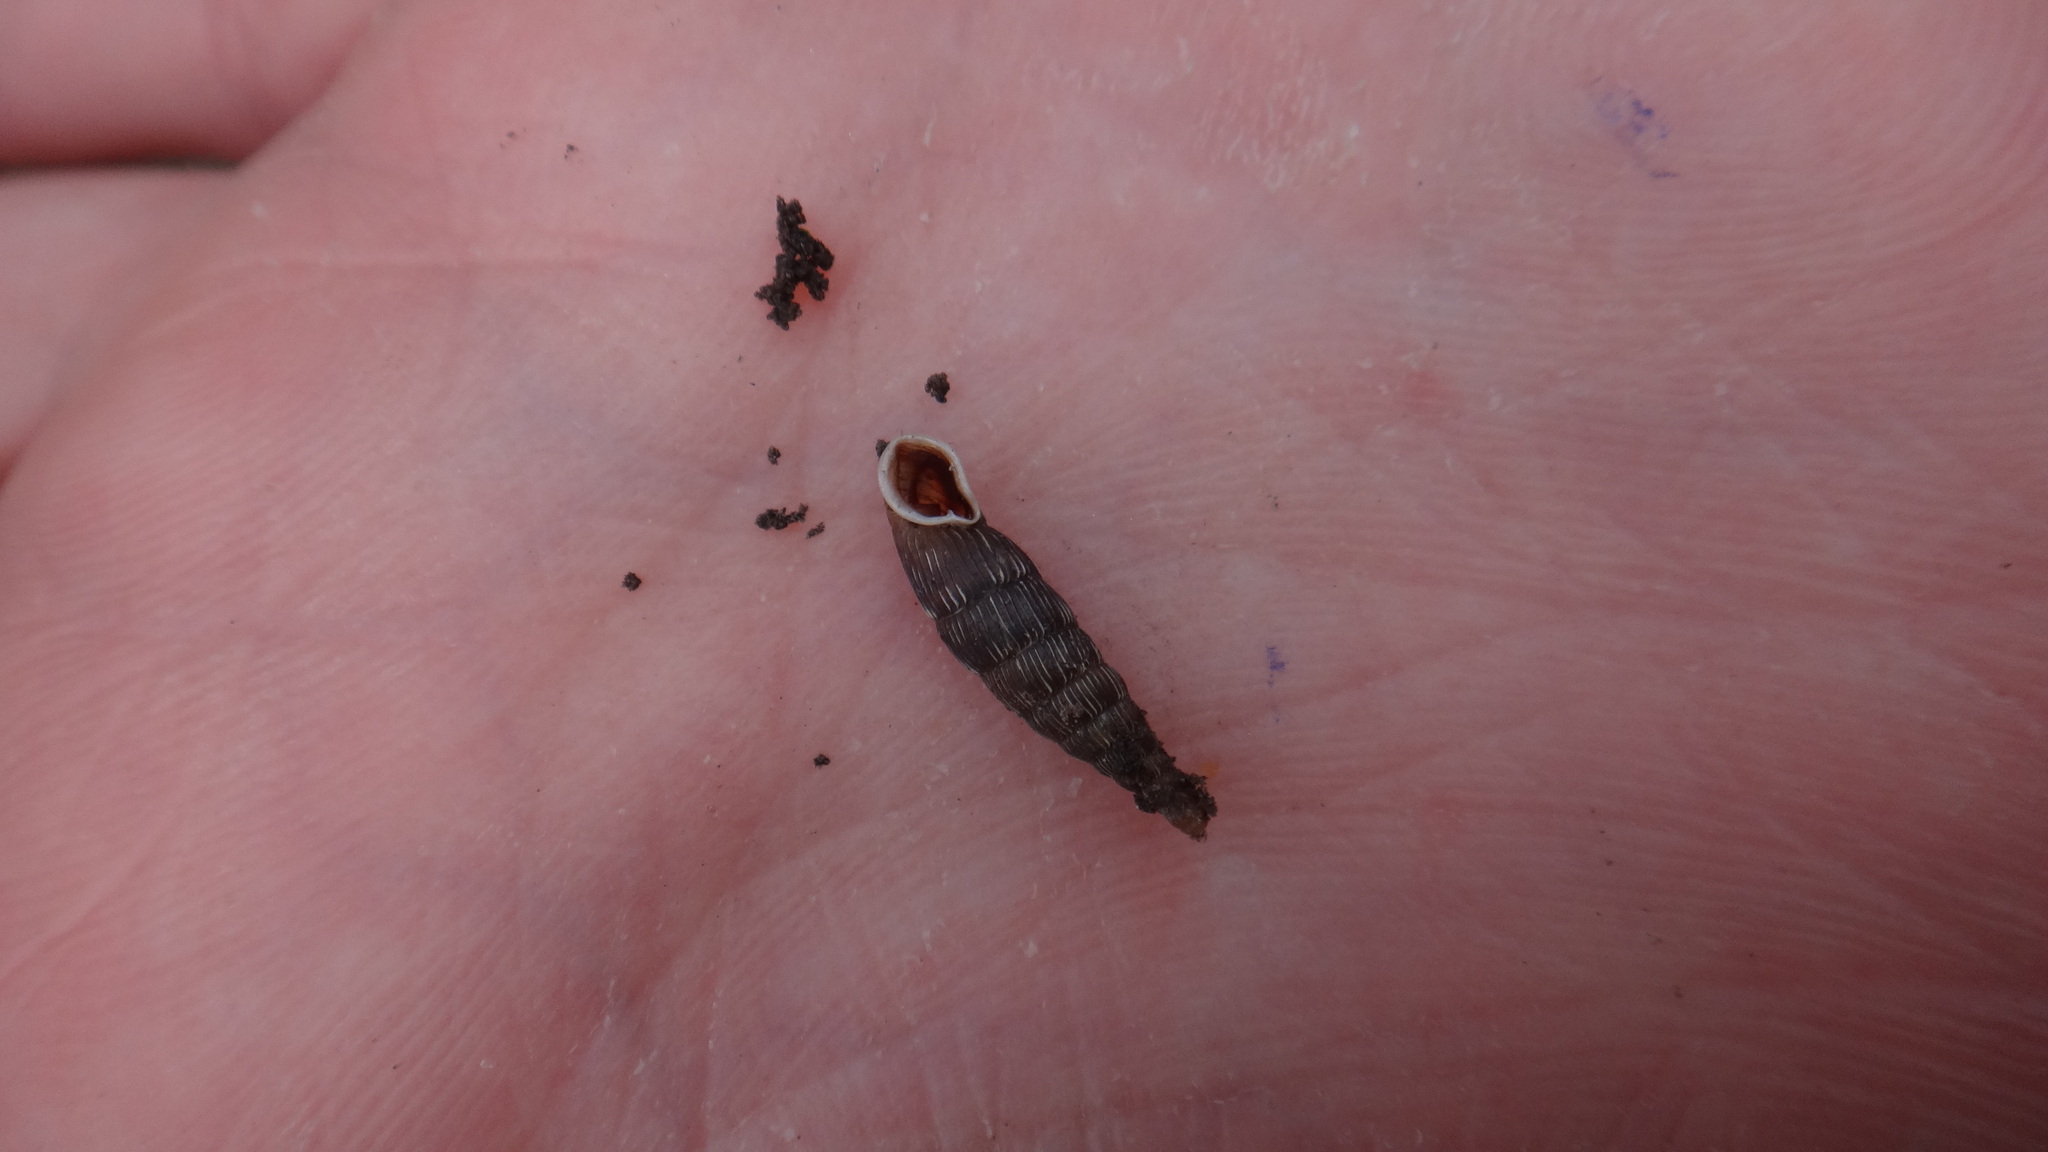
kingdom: Animalia
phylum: Mollusca
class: Gastropoda
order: Stylommatophora
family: Clausiliidae
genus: Strigillaria
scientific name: Strigillaria cana
